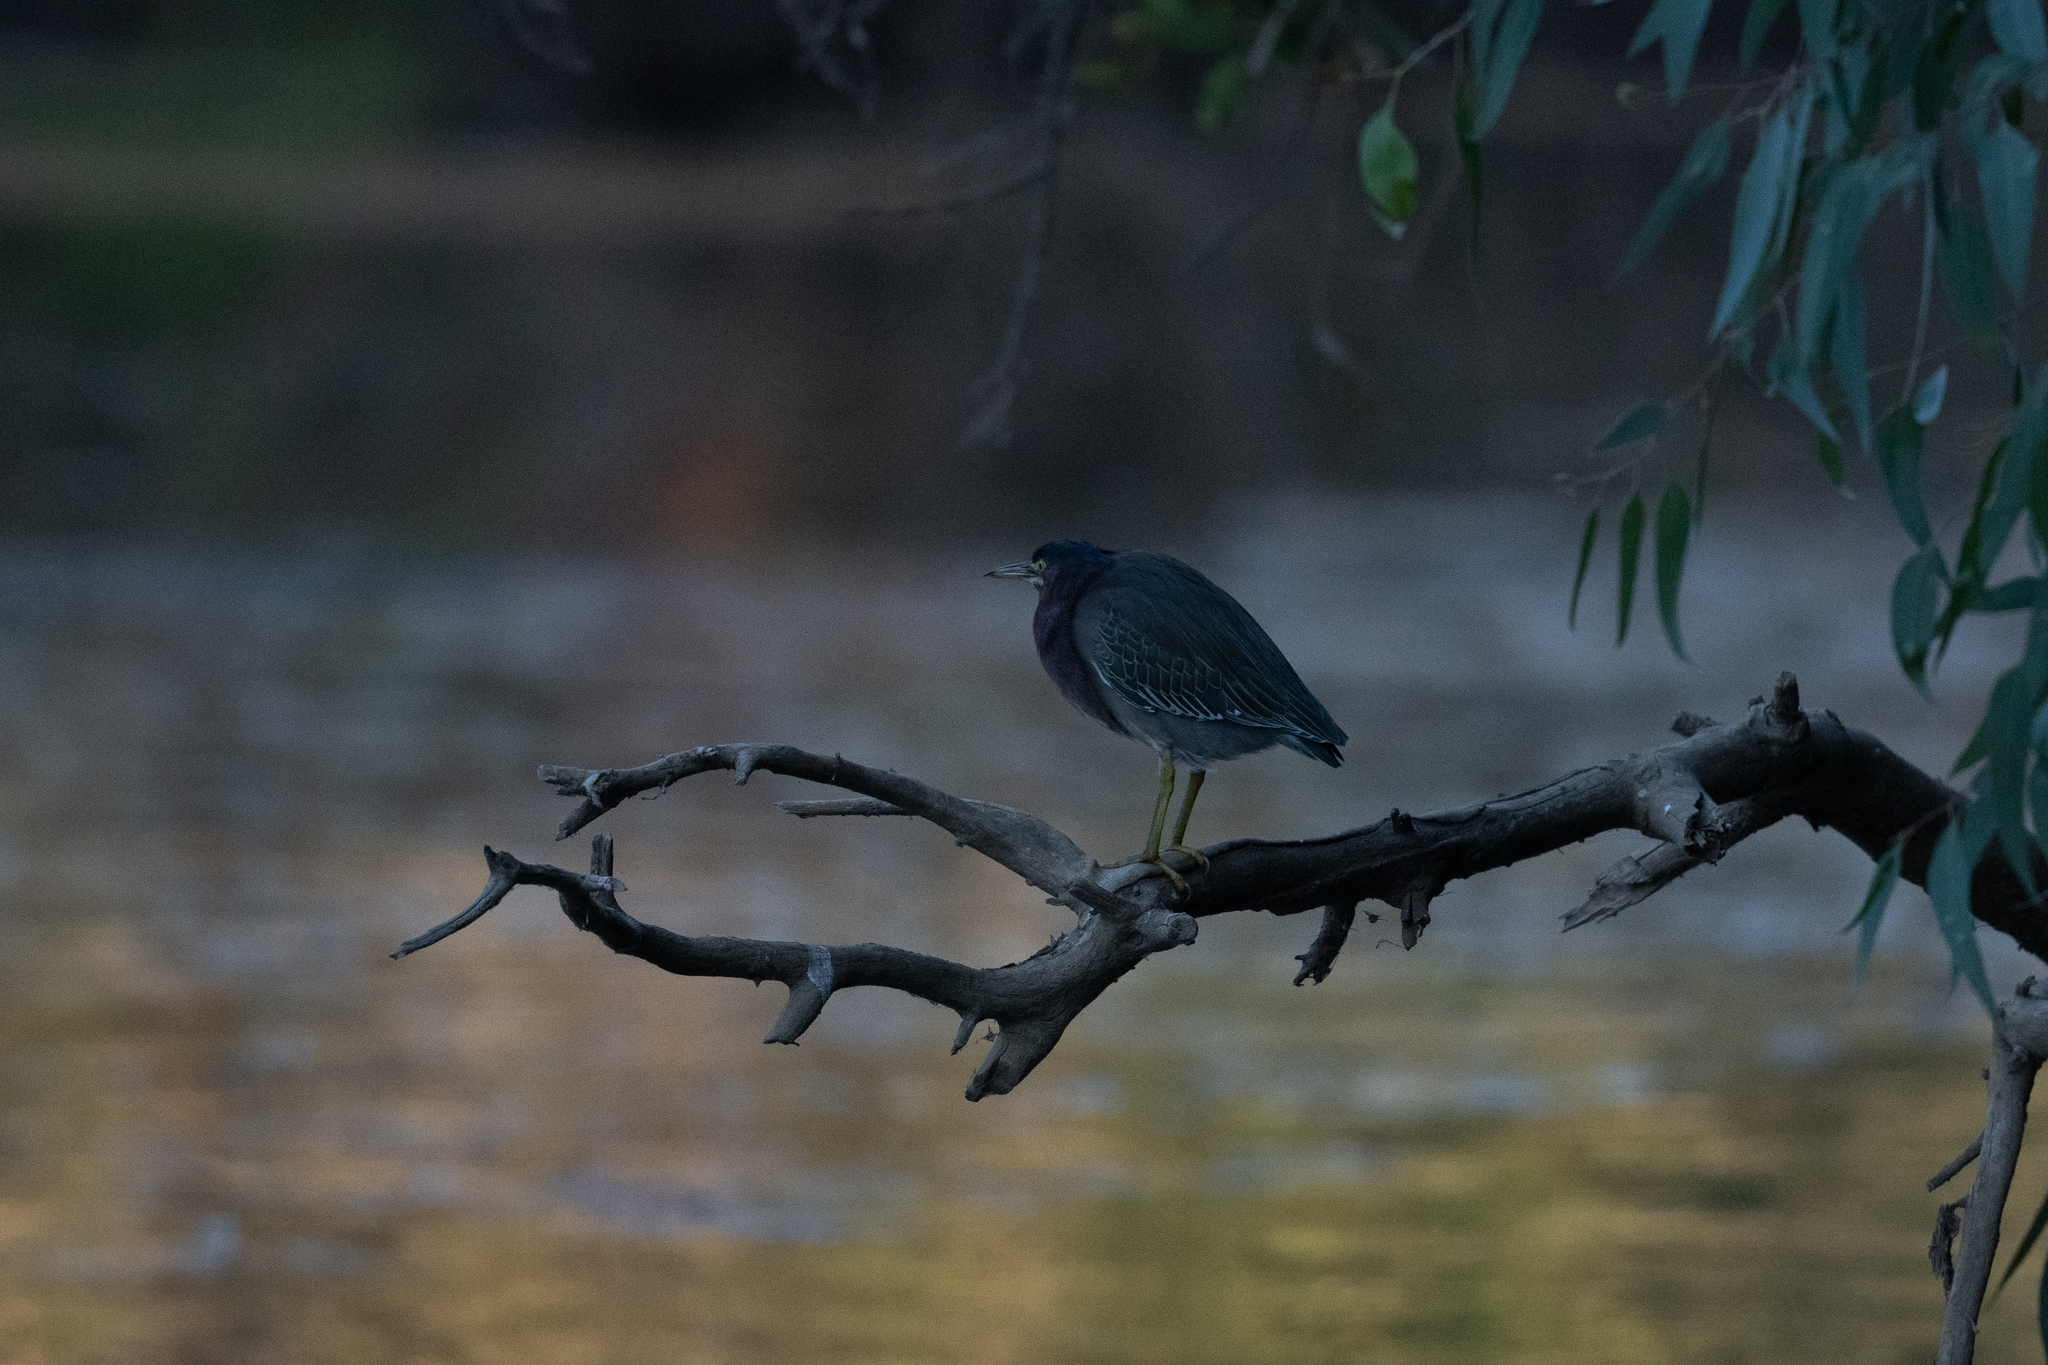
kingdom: Animalia
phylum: Chordata
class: Aves
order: Pelecaniformes
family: Ardeidae
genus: Butorides
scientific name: Butorides virescens
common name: Green heron
